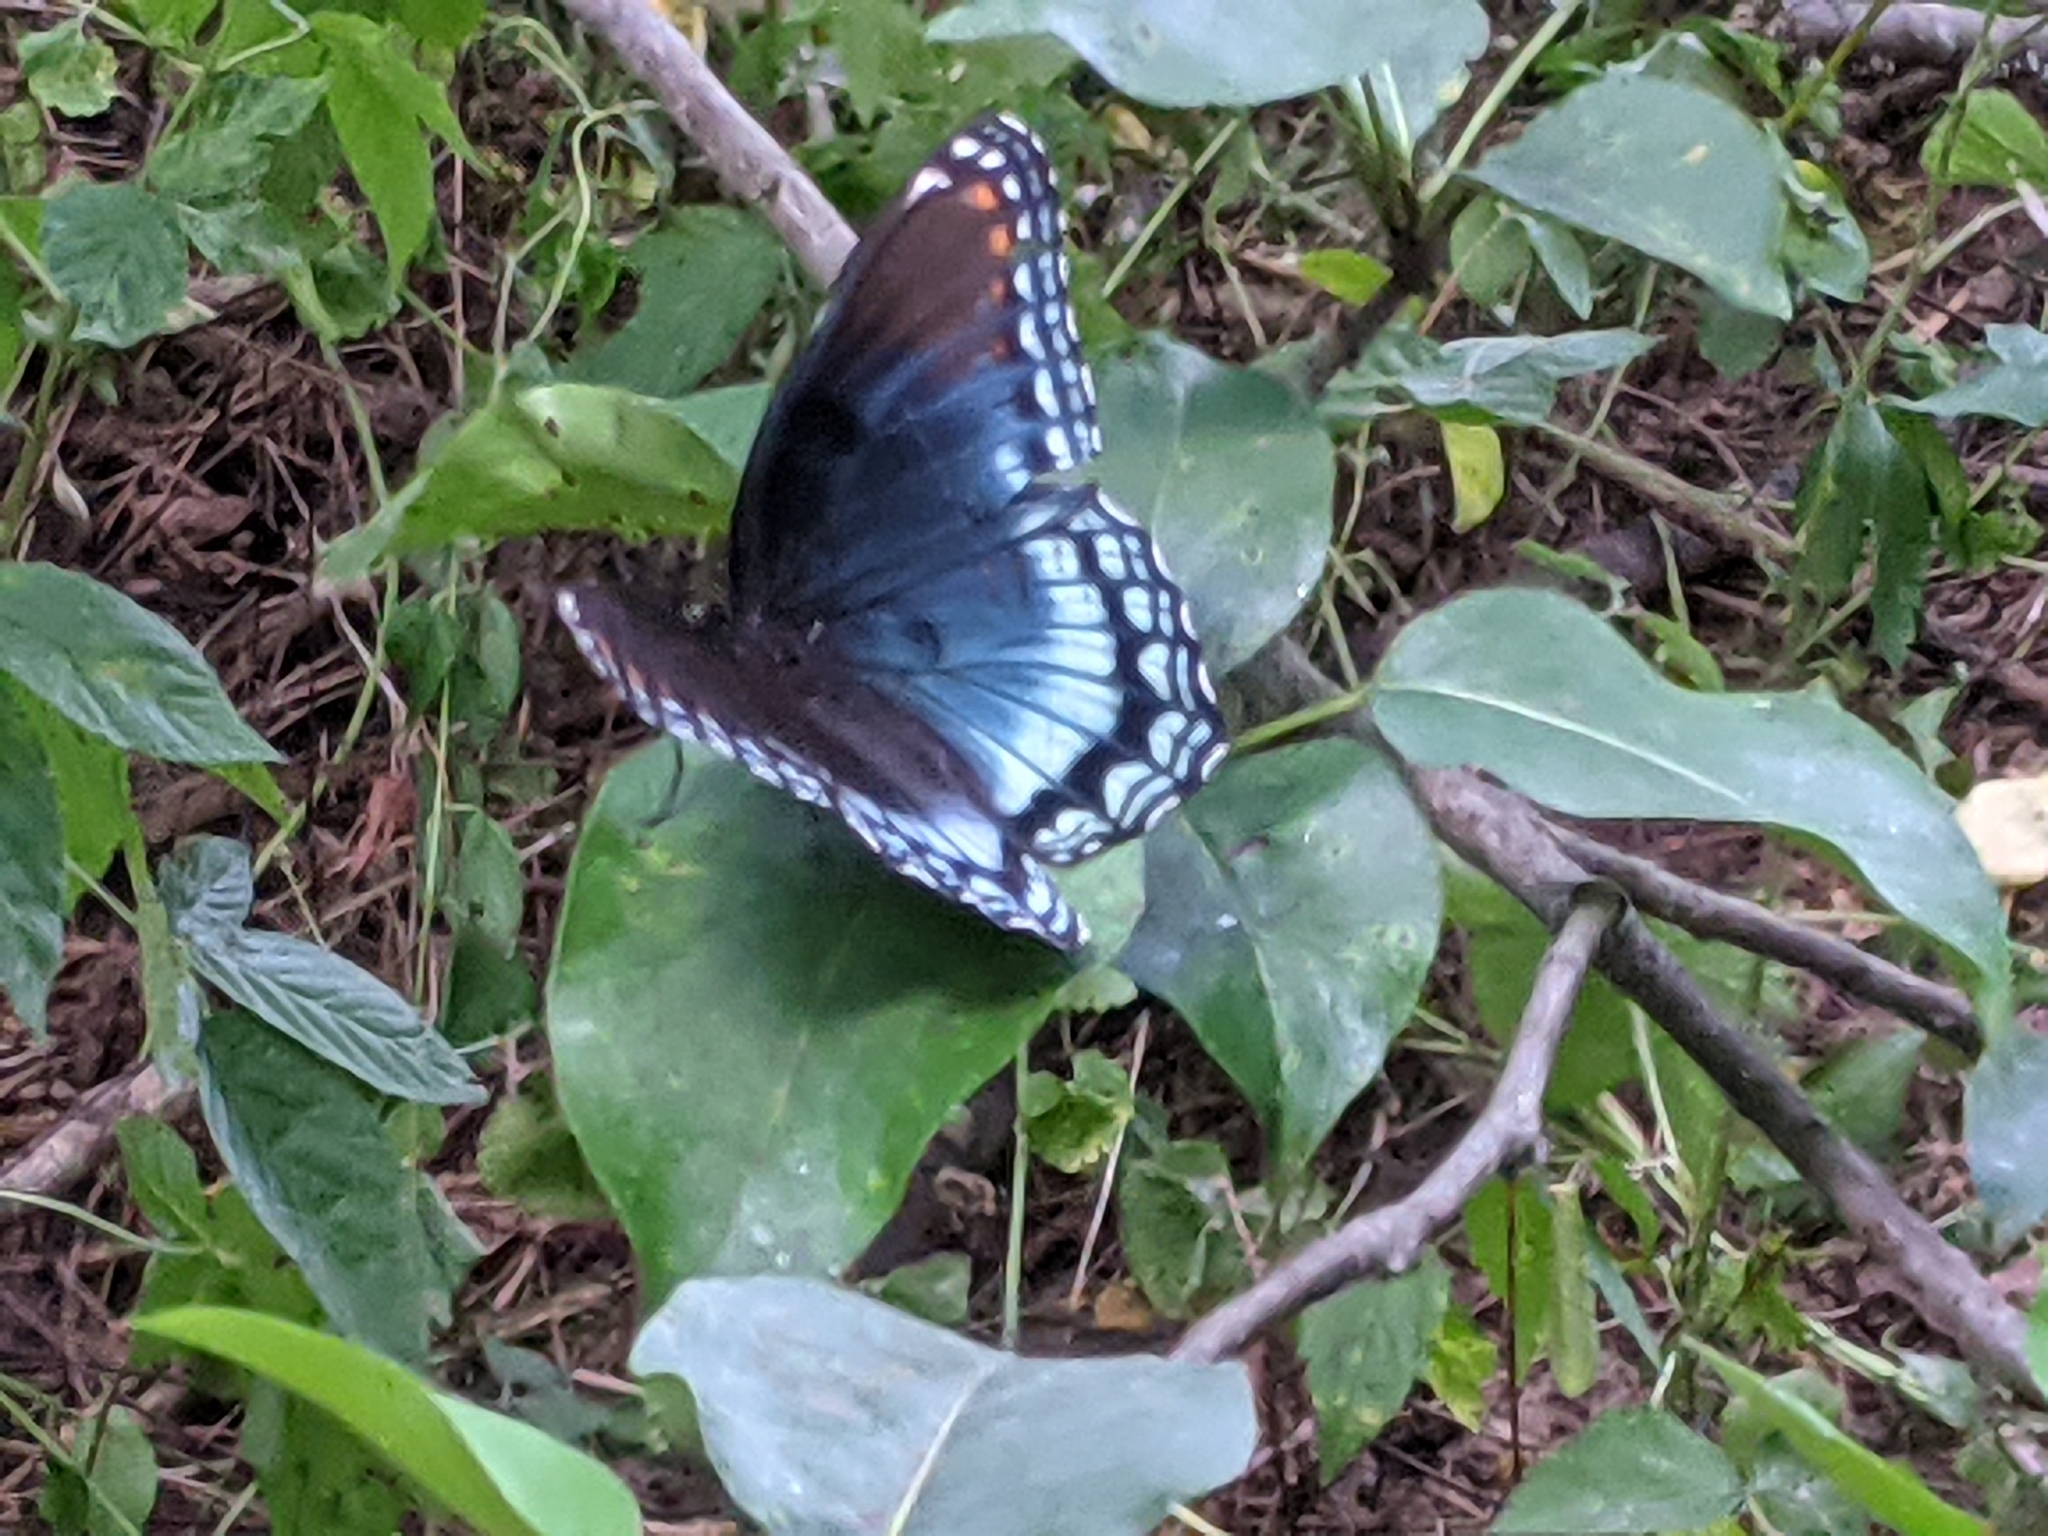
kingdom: Animalia
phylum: Arthropoda
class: Insecta
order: Lepidoptera
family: Nymphalidae
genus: Limenitis
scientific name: Limenitis arthemis
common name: Red-spotted admiral
